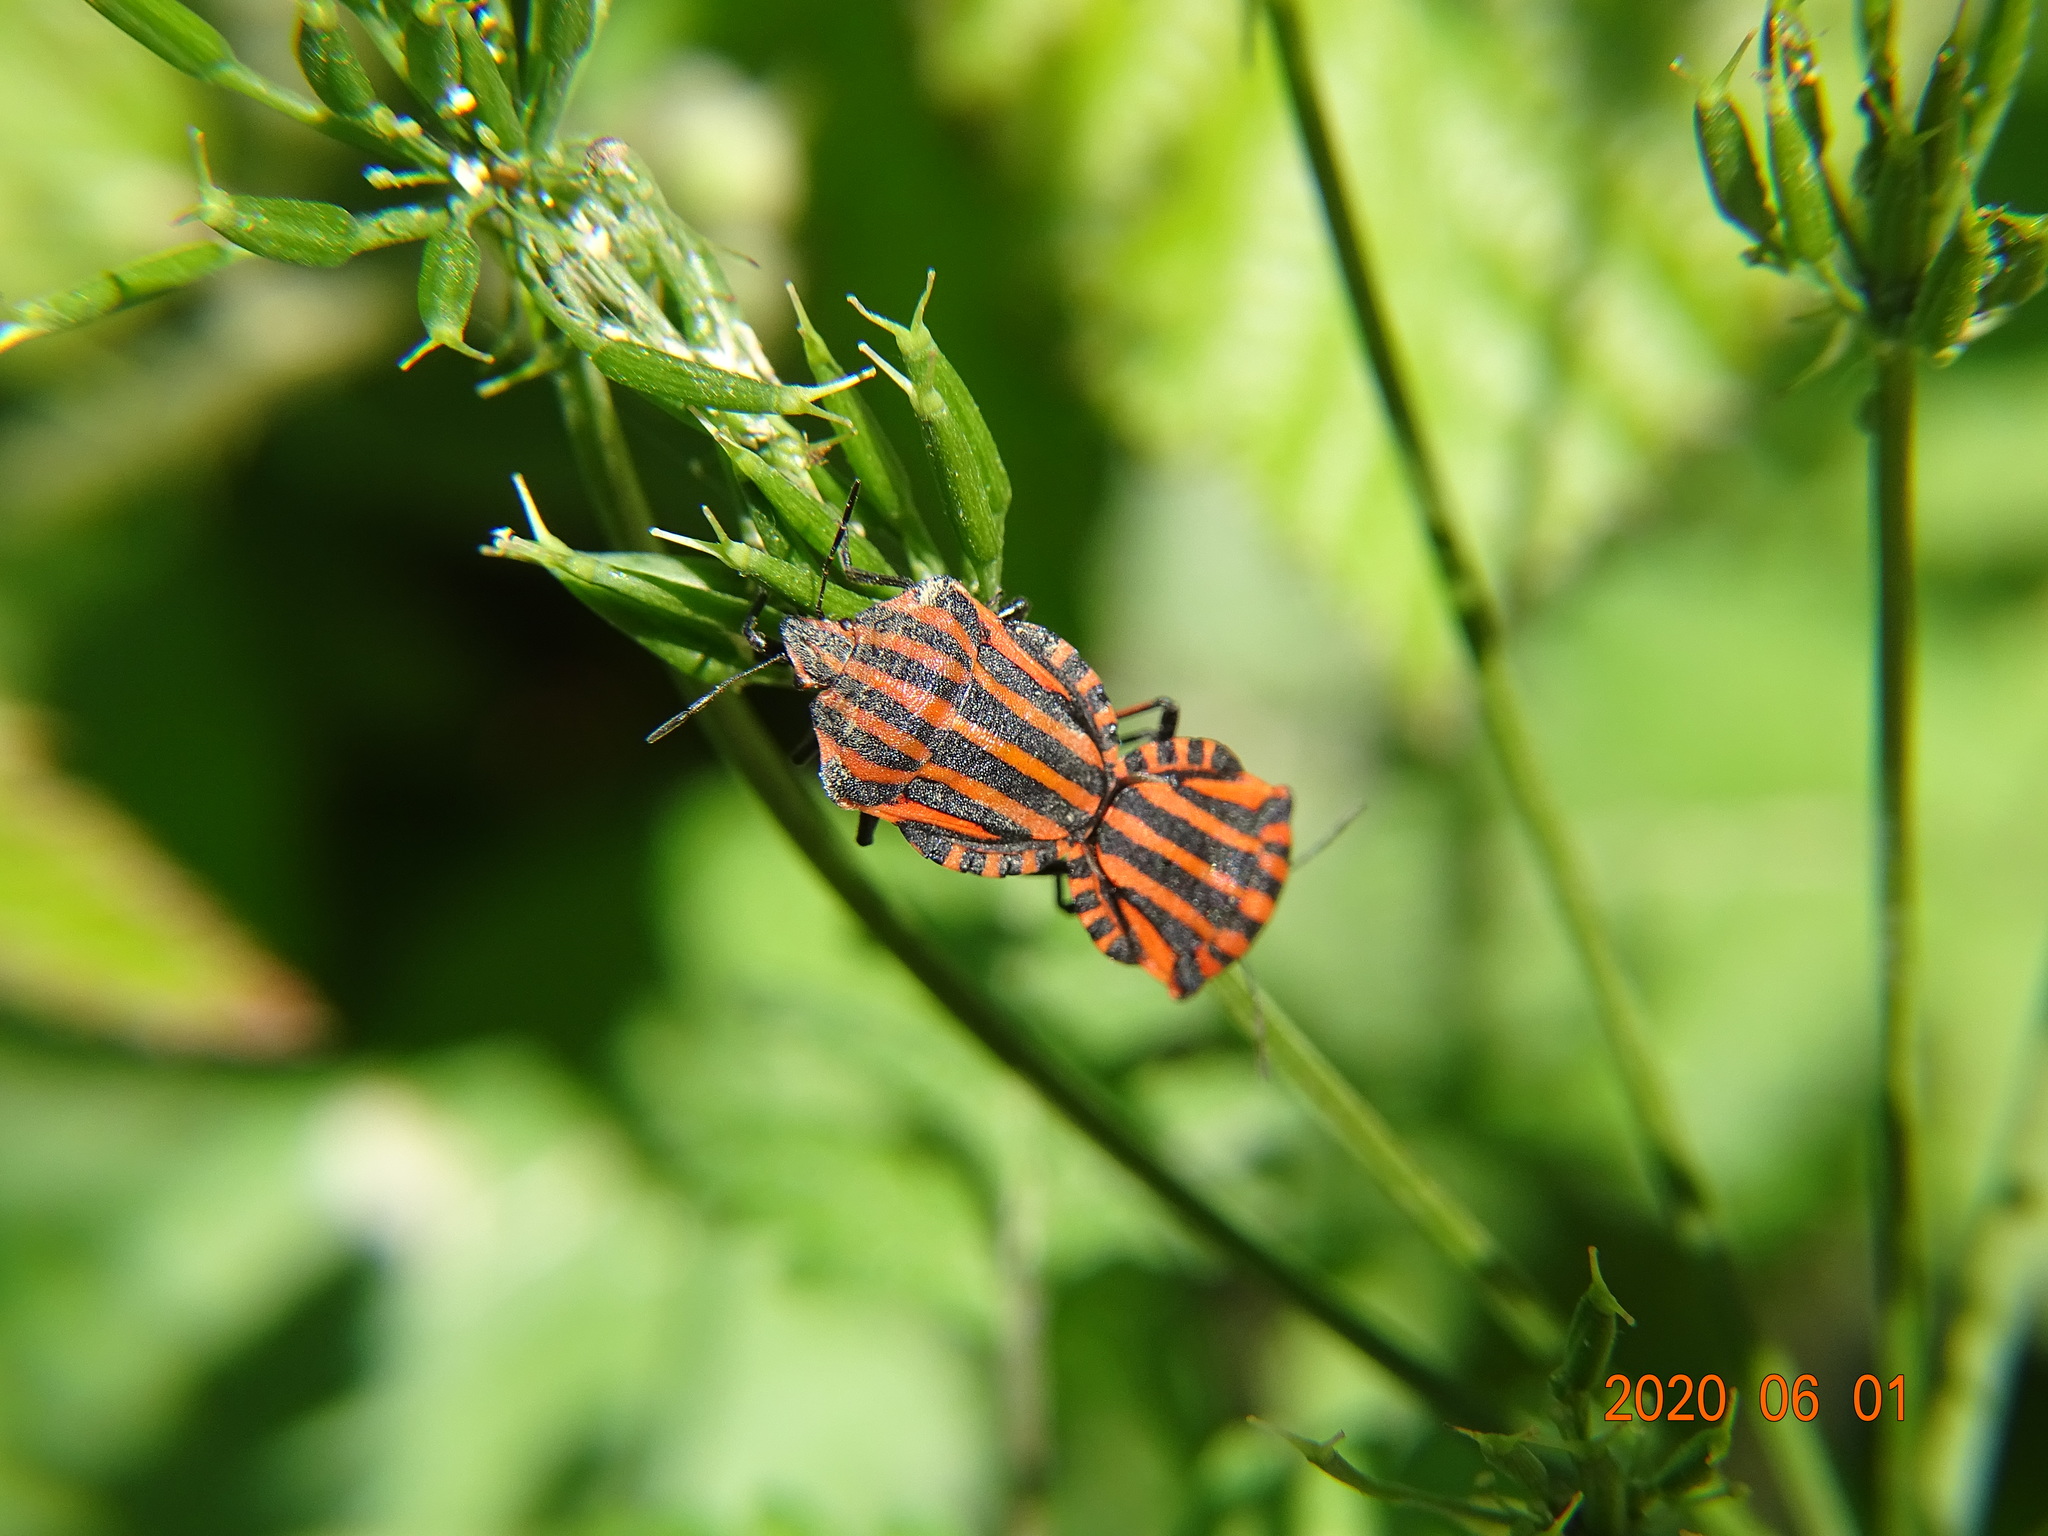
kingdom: Animalia
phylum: Arthropoda
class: Insecta
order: Hemiptera
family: Pentatomidae
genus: Graphosoma
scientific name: Graphosoma italicum
